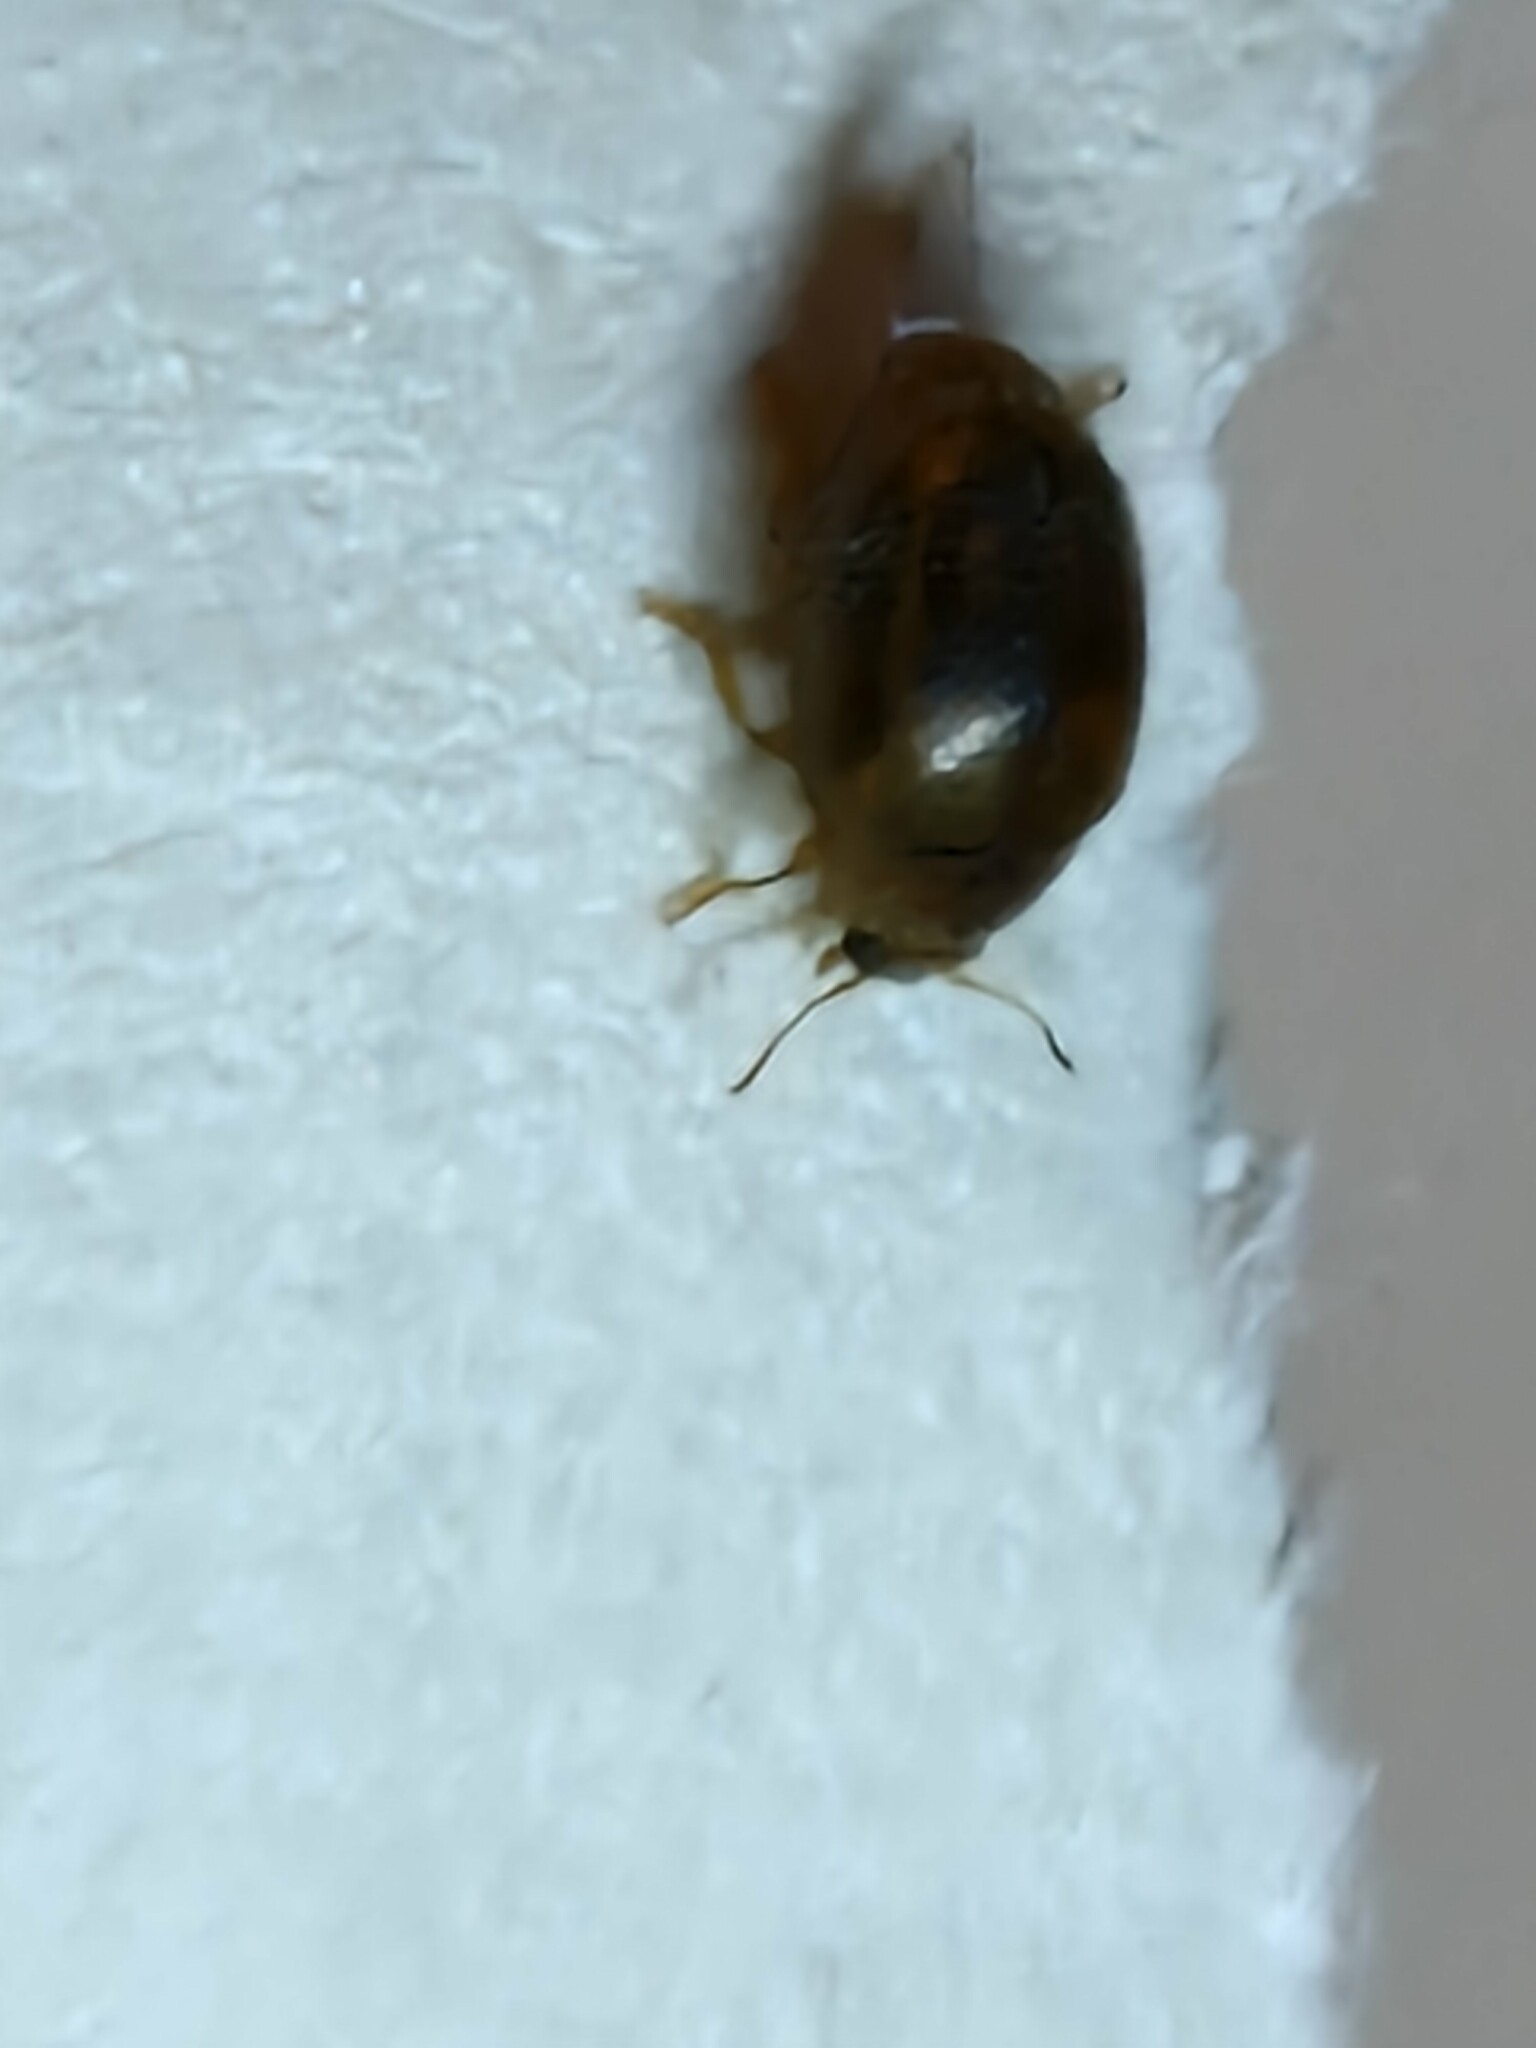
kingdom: Animalia
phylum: Arthropoda
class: Insecta
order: Coleoptera
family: Coccinellidae
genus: Rhyzobius
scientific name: Rhyzobius chrysomeloides
